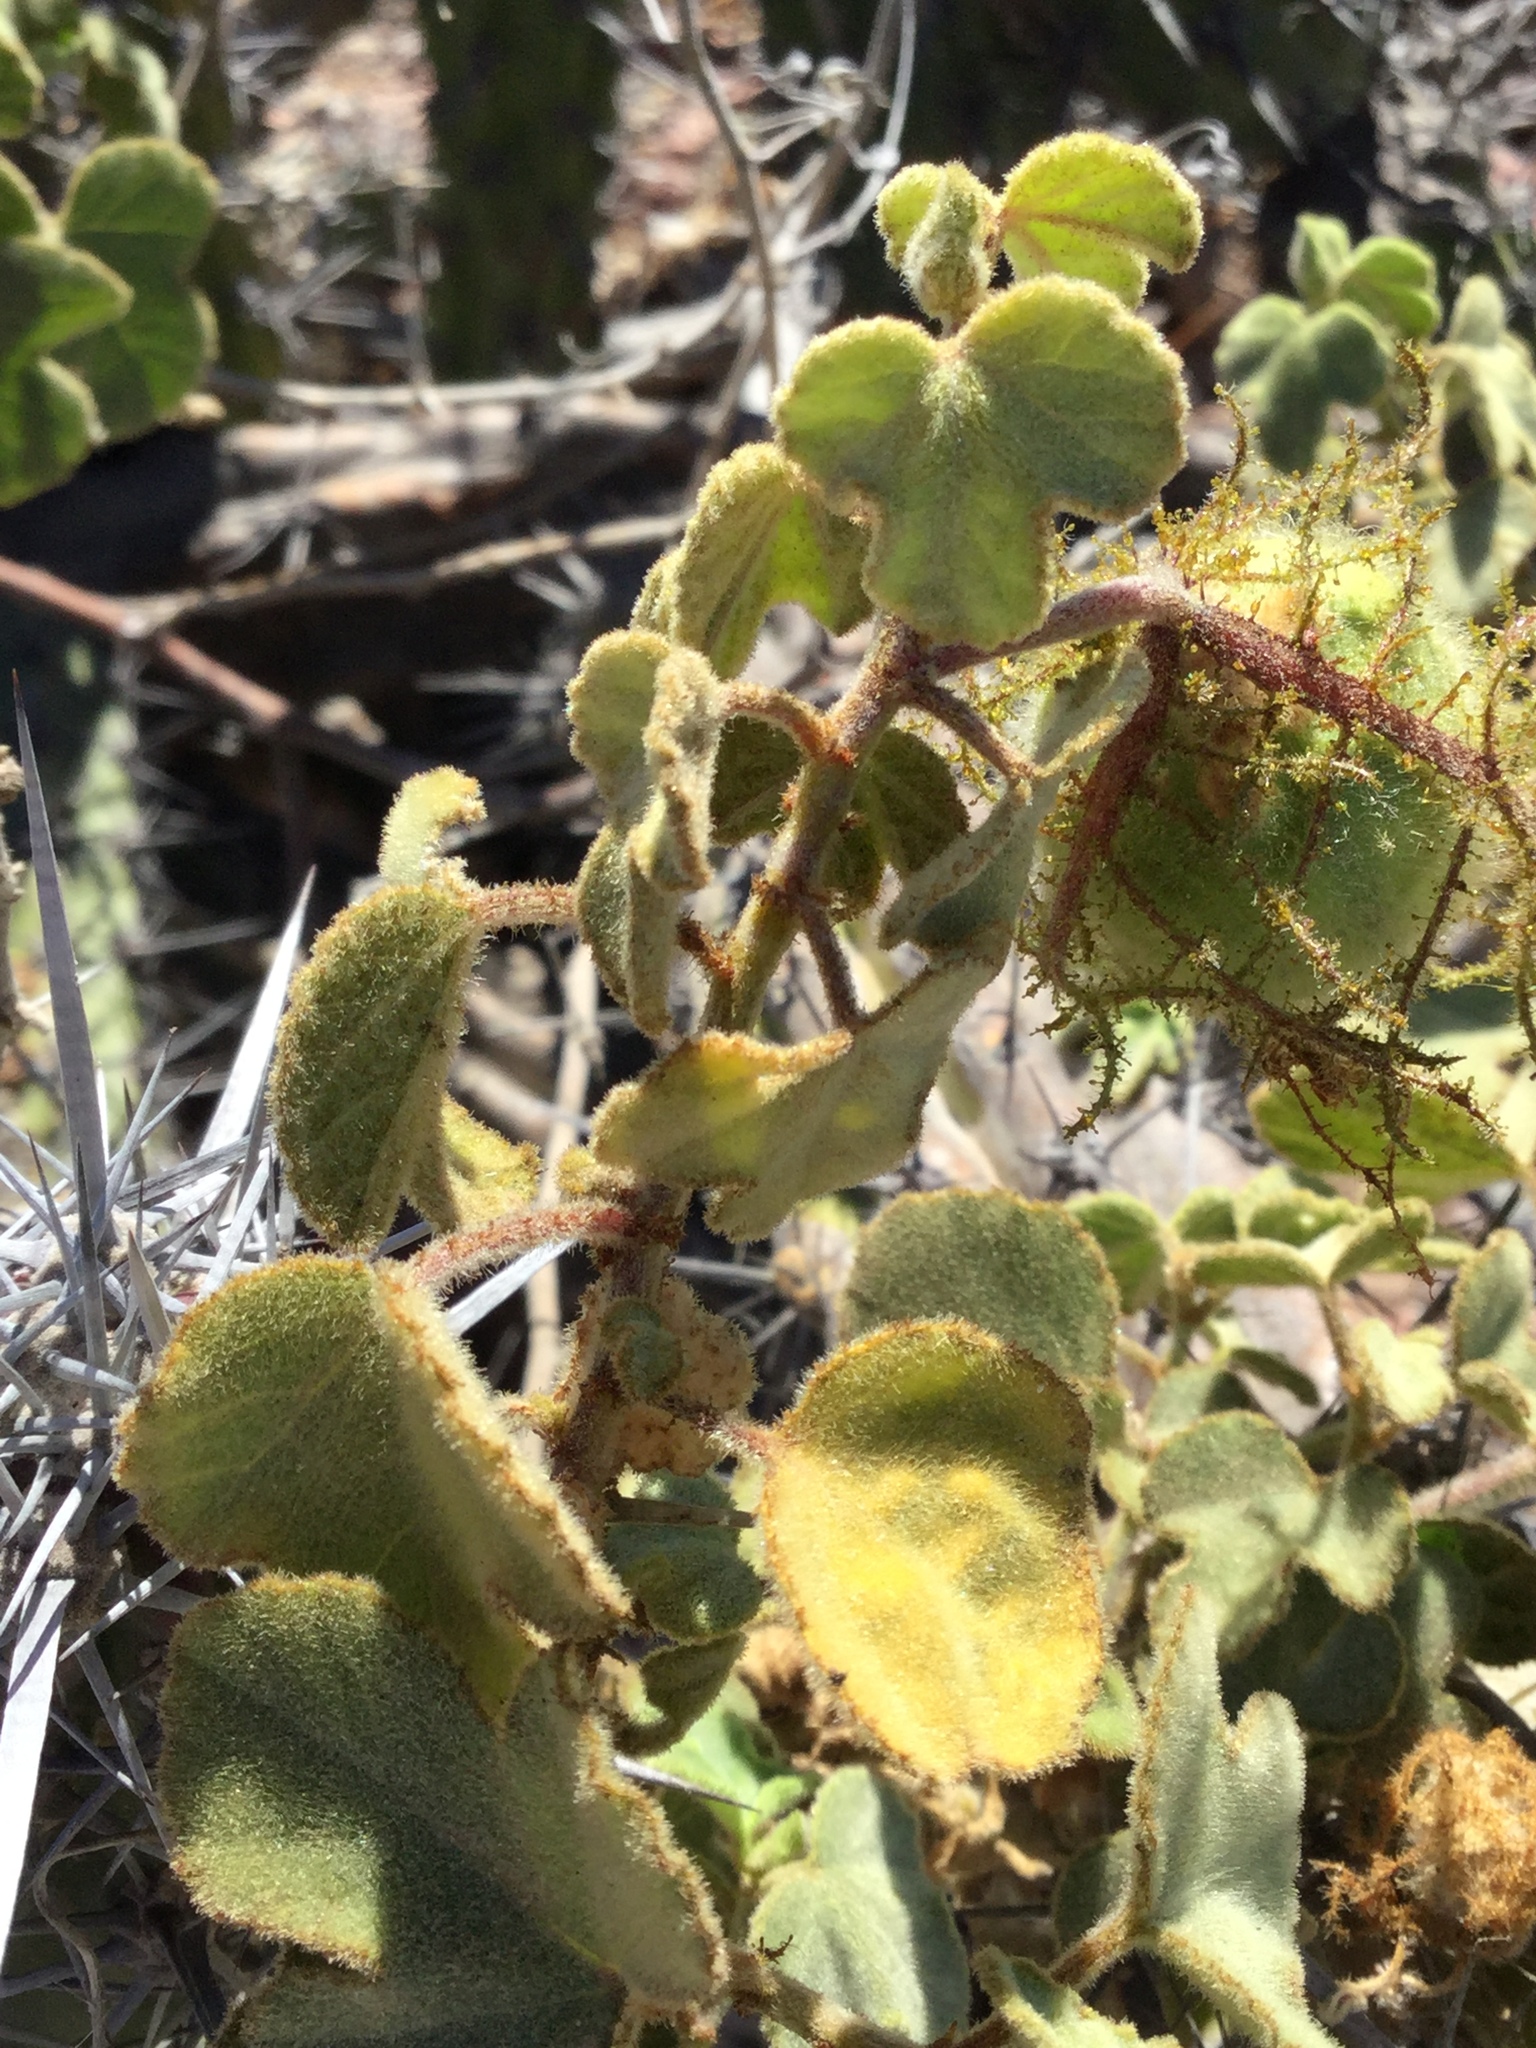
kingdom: Plantae
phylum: Tracheophyta
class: Magnoliopsida
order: Malpighiales
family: Passifloraceae
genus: Passiflora
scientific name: Passiflora fruticosa
